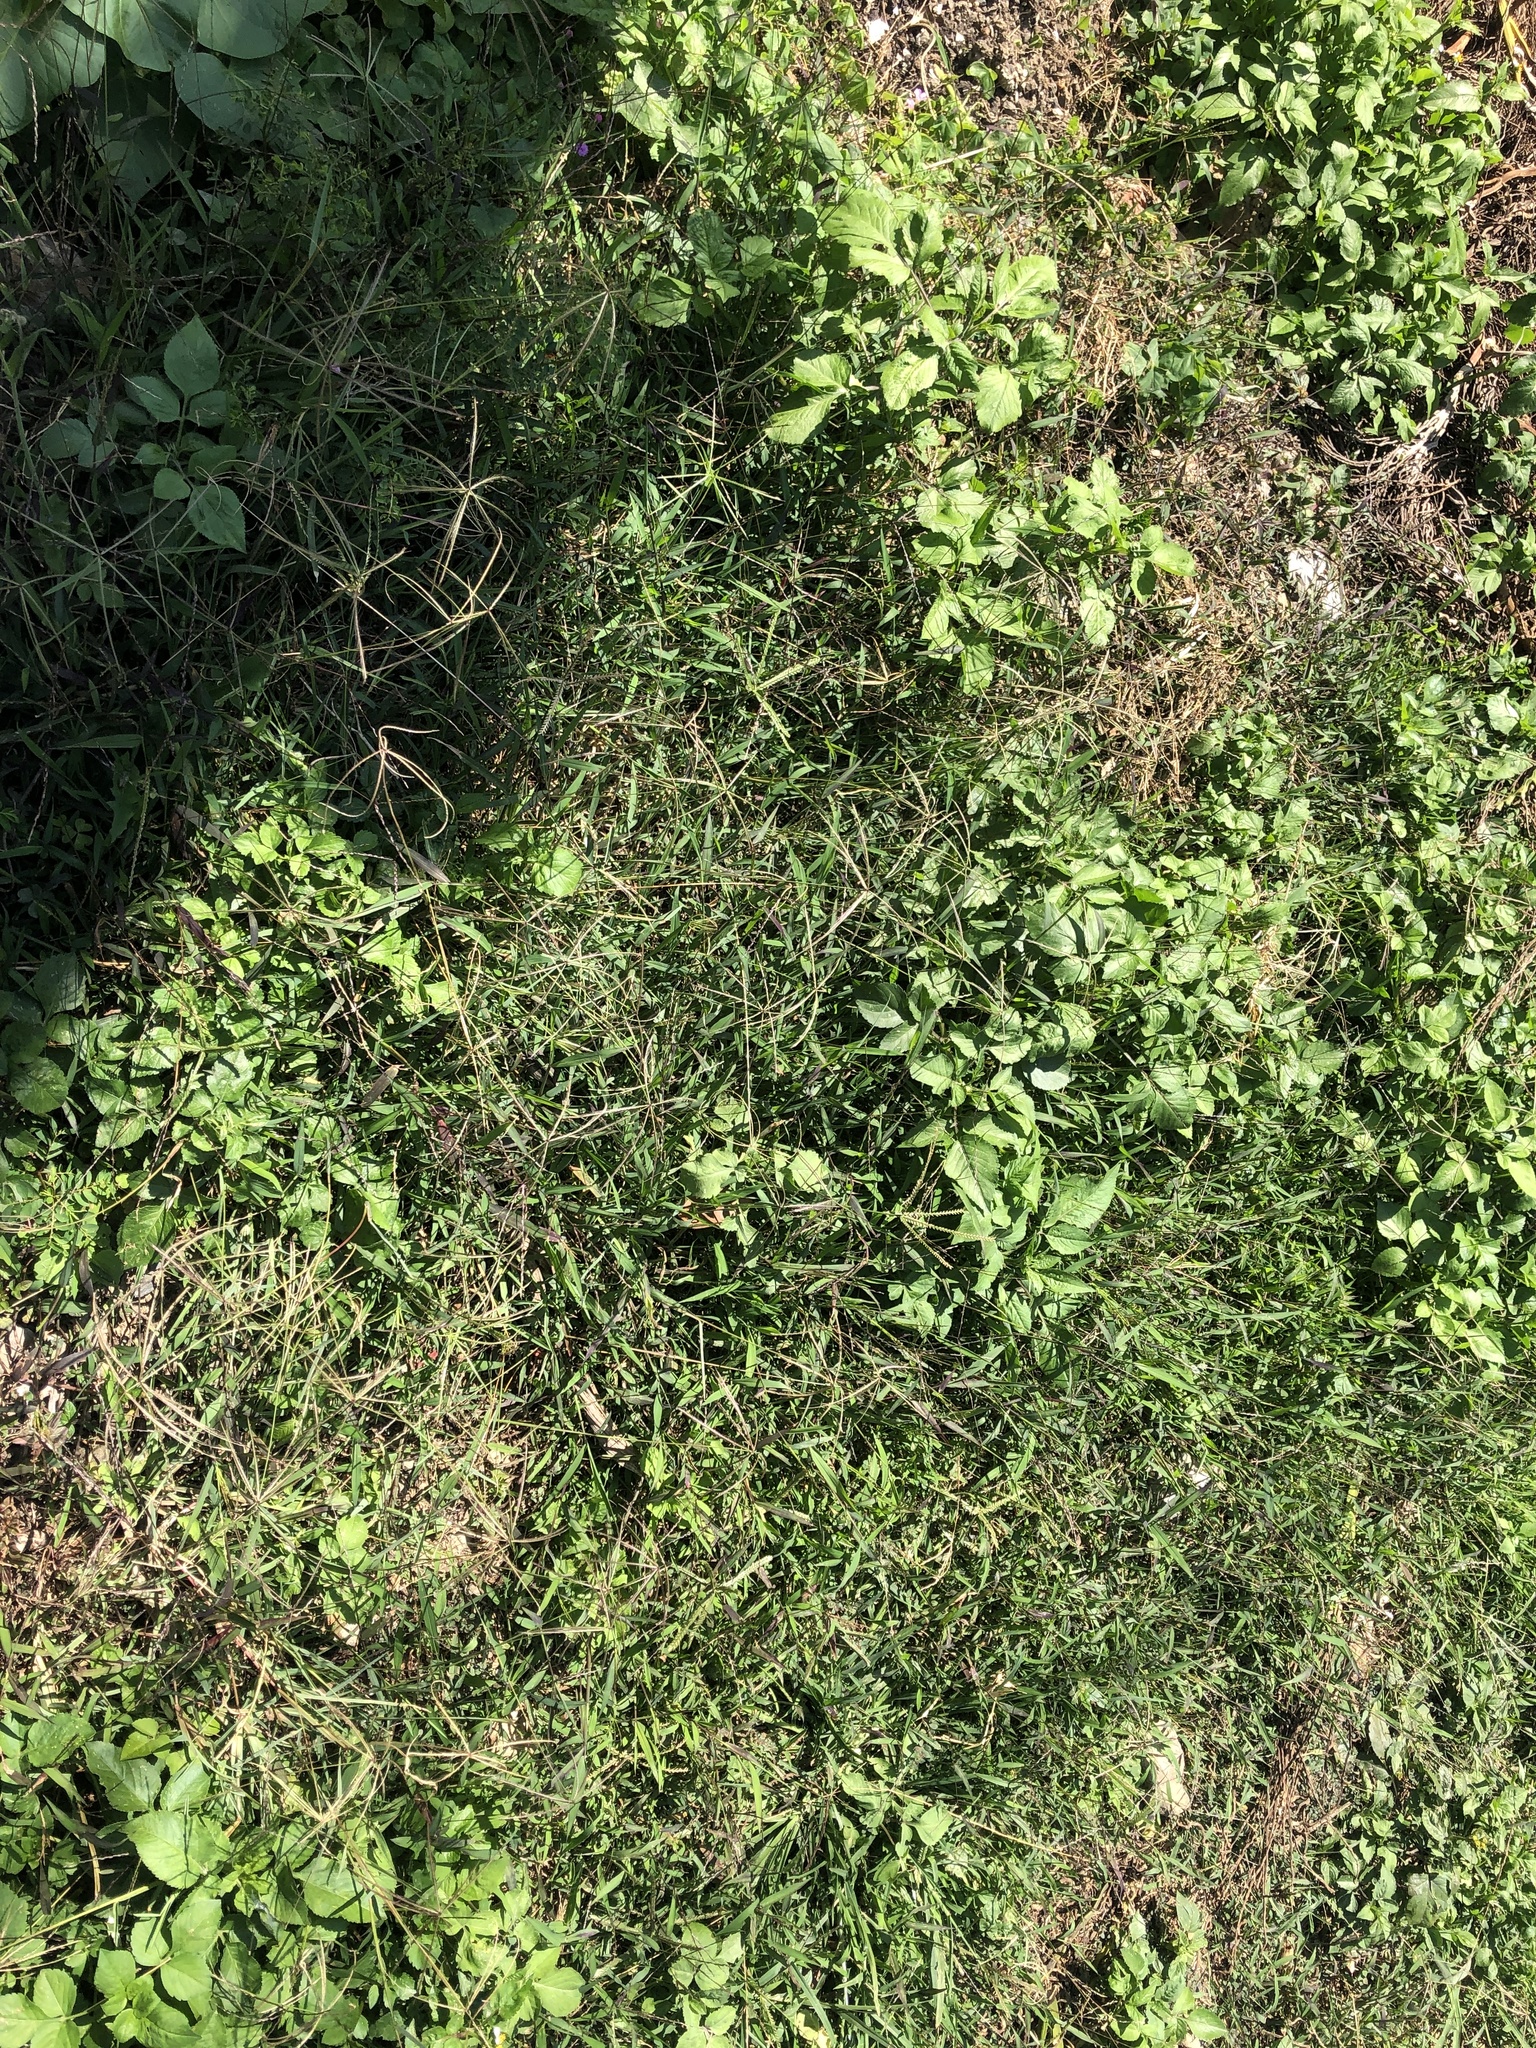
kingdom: Plantae
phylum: Tracheophyta
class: Liliopsida
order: Poales
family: Poaceae
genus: Chloris
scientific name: Chloris divaricata
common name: Spreading windmill grass
